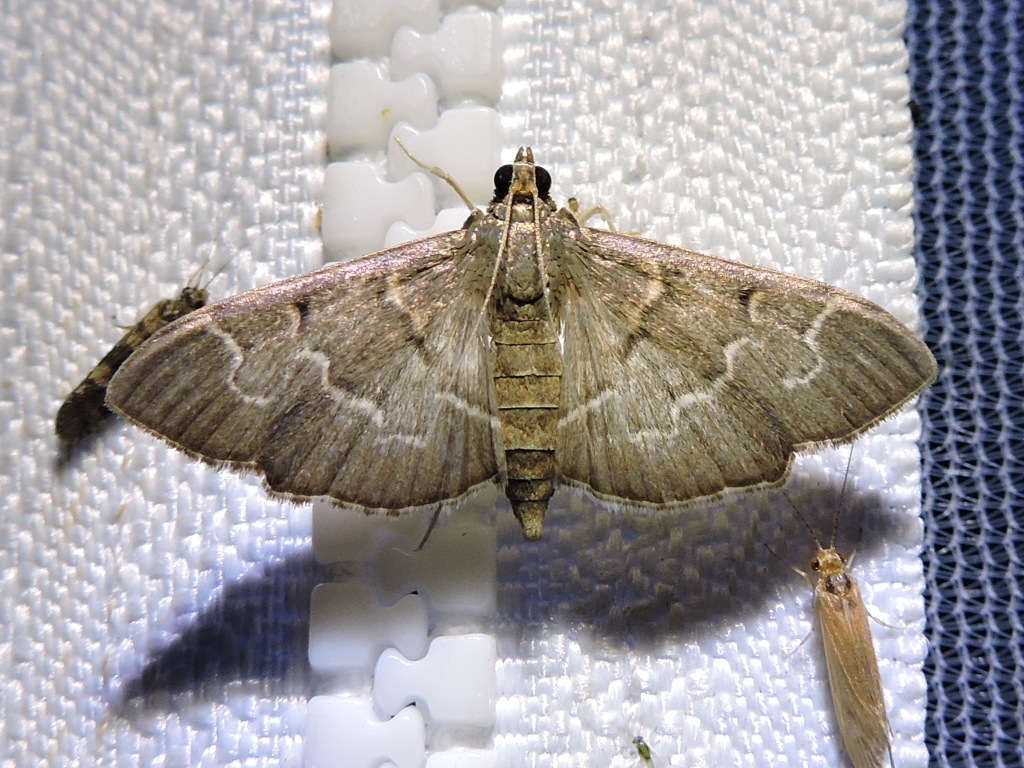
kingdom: Animalia
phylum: Arthropoda
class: Insecta
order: Lepidoptera
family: Crambidae
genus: Pilocrocis
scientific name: Pilocrocis ramentalis
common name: Scraped pilocrocis
